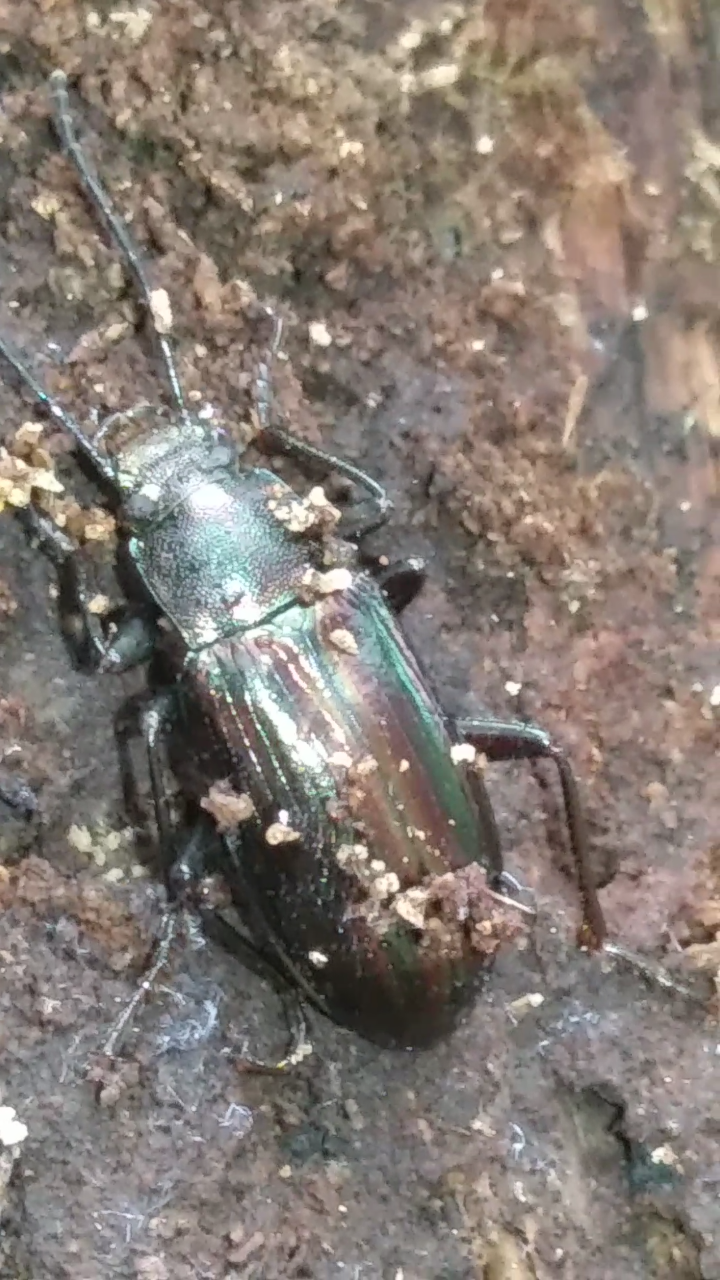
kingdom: Animalia
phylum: Arthropoda
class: Insecta
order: Coleoptera
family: Tenebrionidae
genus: Tarpela
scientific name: Tarpela micans
